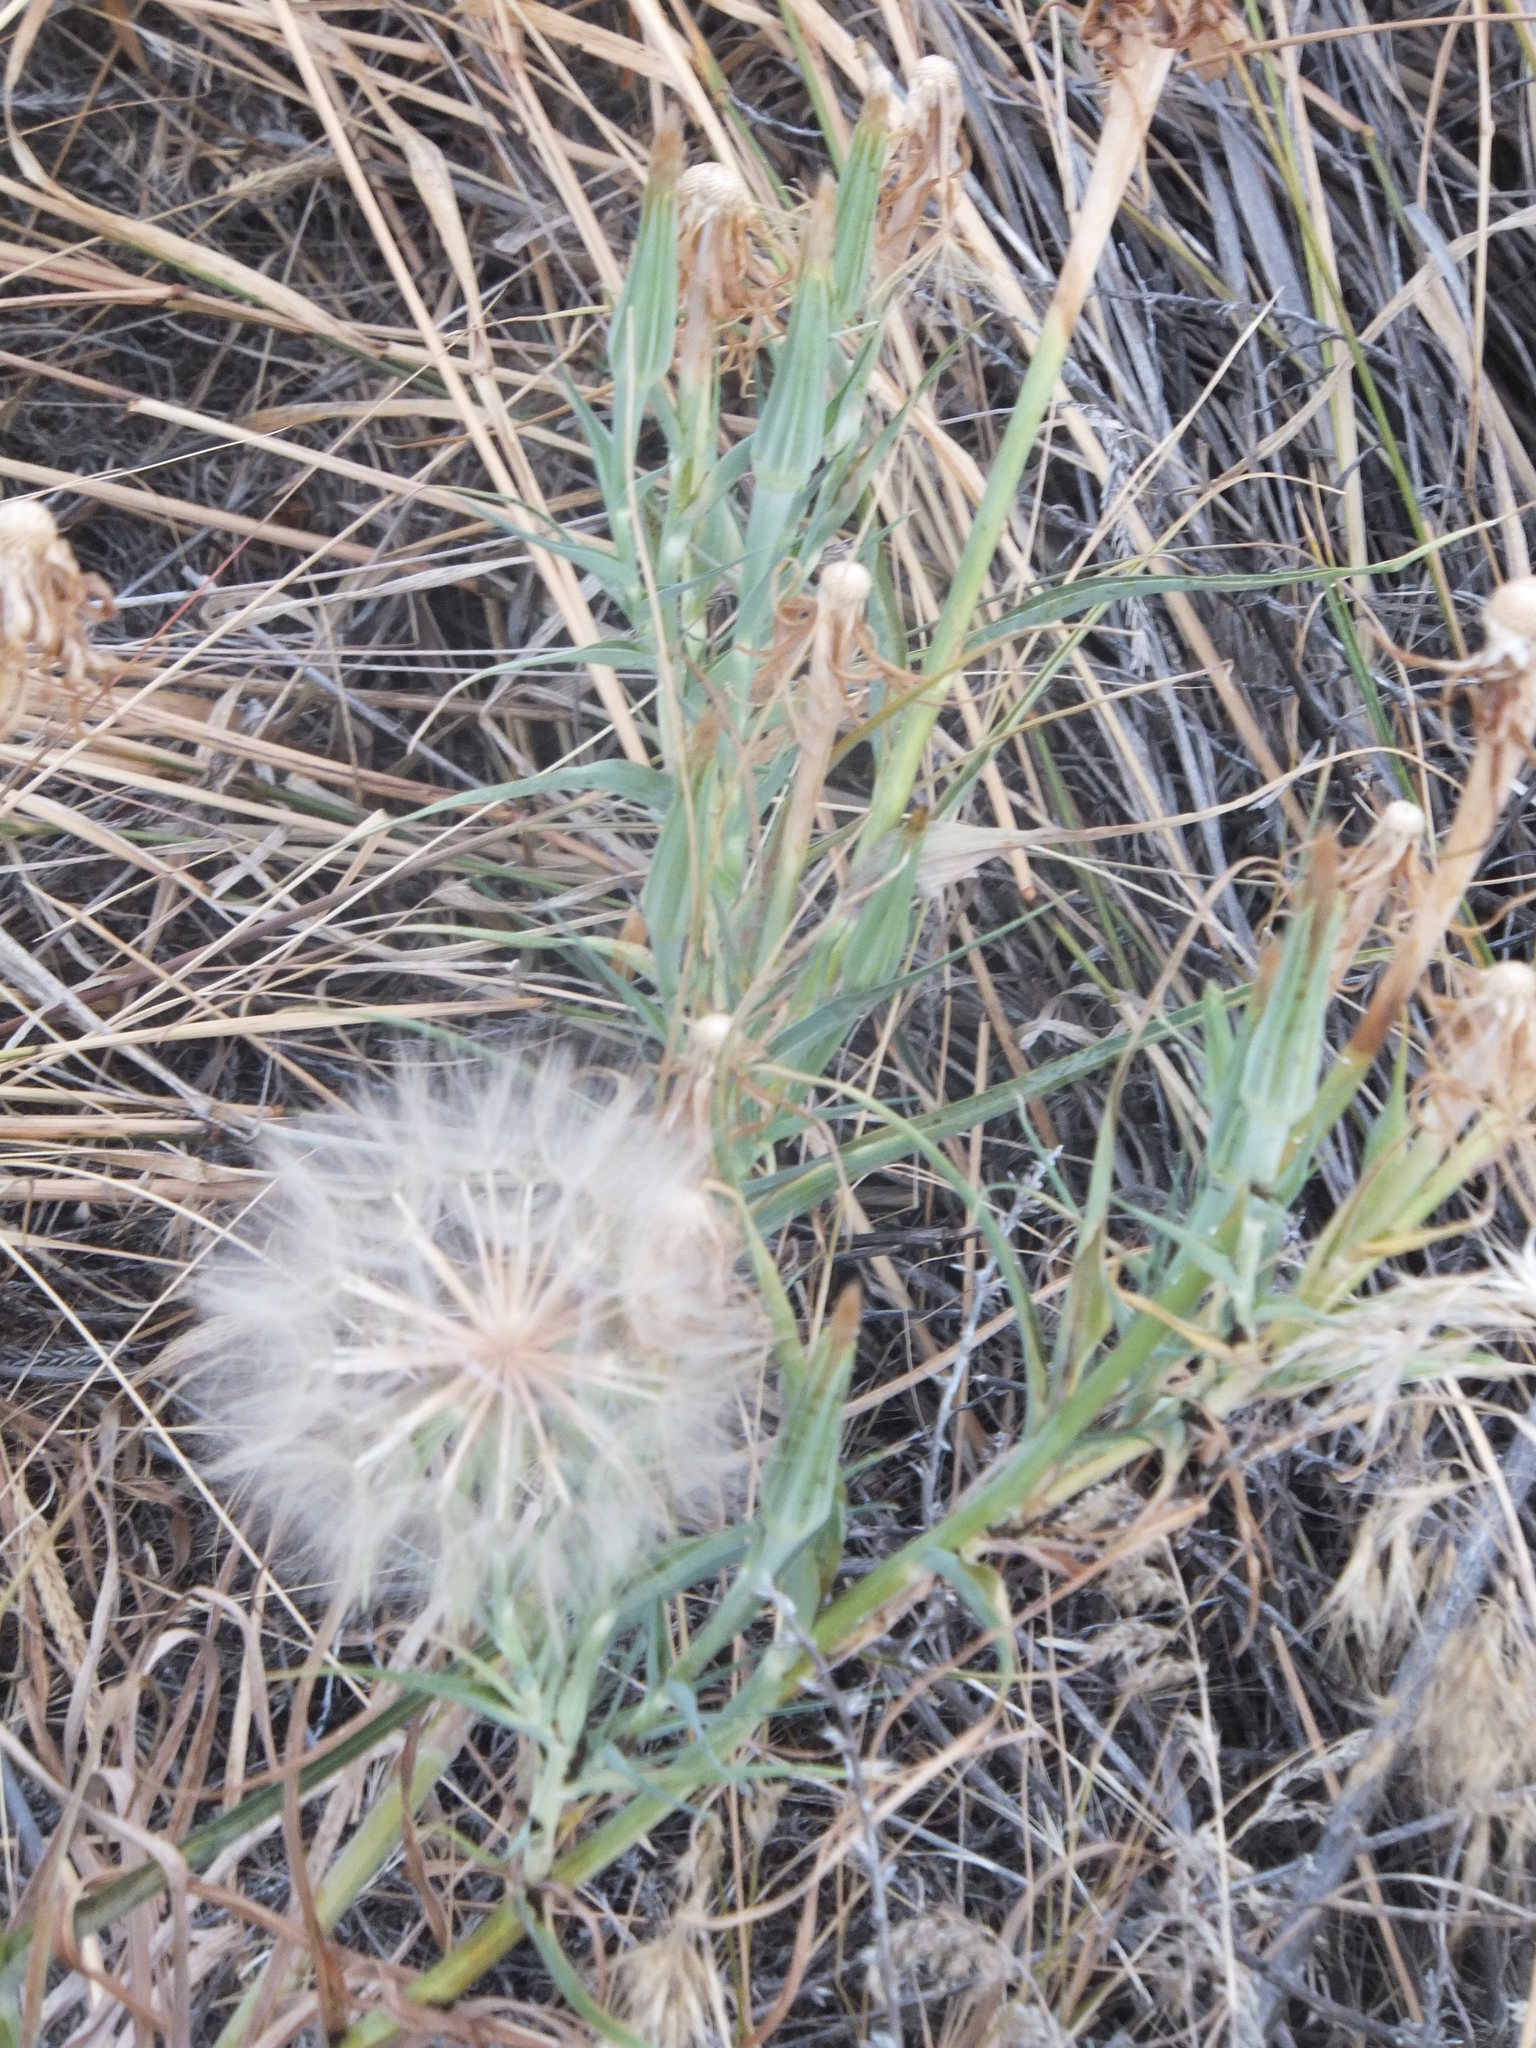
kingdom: Plantae
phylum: Tracheophyta
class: Magnoliopsida
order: Asterales
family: Asteraceae
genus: Tragopogon
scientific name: Tragopogon dubius
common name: Yellow salsify
